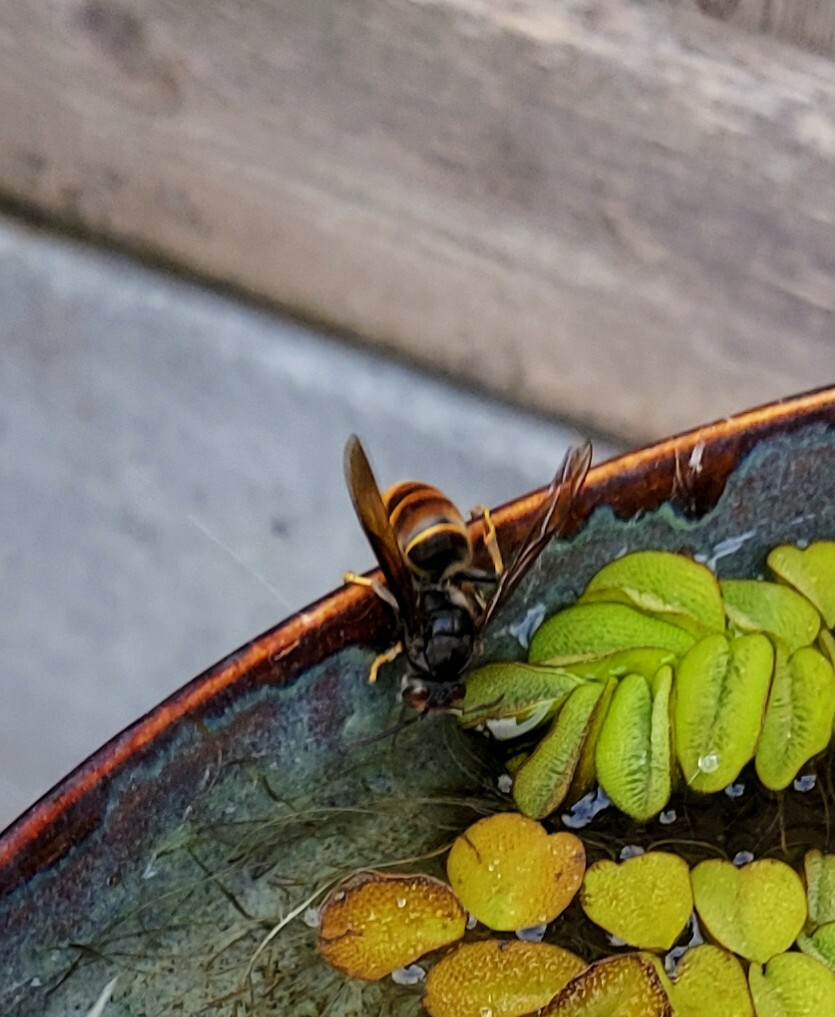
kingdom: Animalia
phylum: Arthropoda
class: Insecta
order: Hymenoptera
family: Vespidae
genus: Vespa
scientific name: Vespa velutina
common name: Asian hornet
